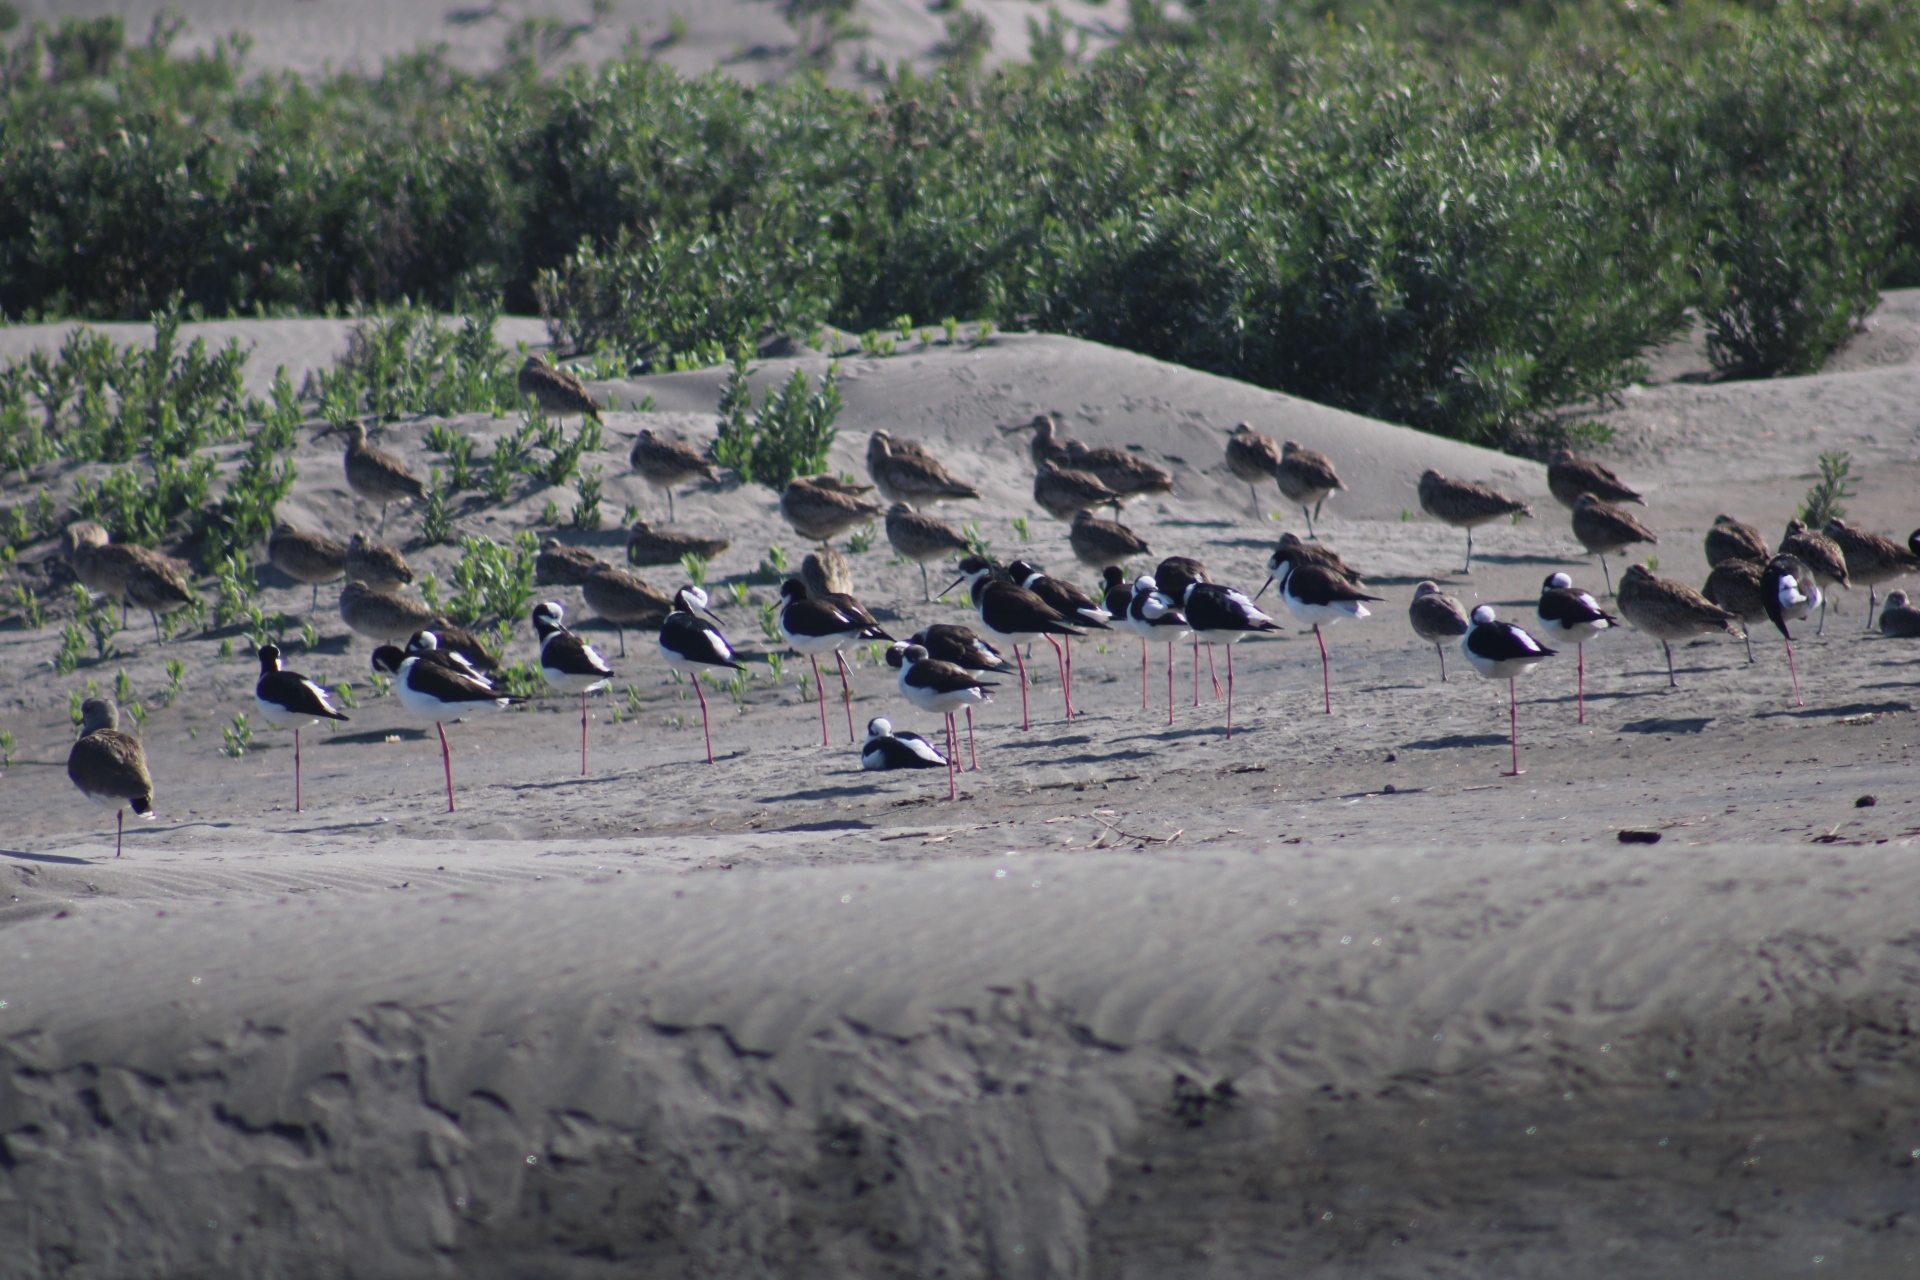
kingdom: Animalia
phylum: Chordata
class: Aves
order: Charadriiformes
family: Recurvirostridae
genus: Himantopus
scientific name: Himantopus mexicanus
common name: Black-necked stilt
